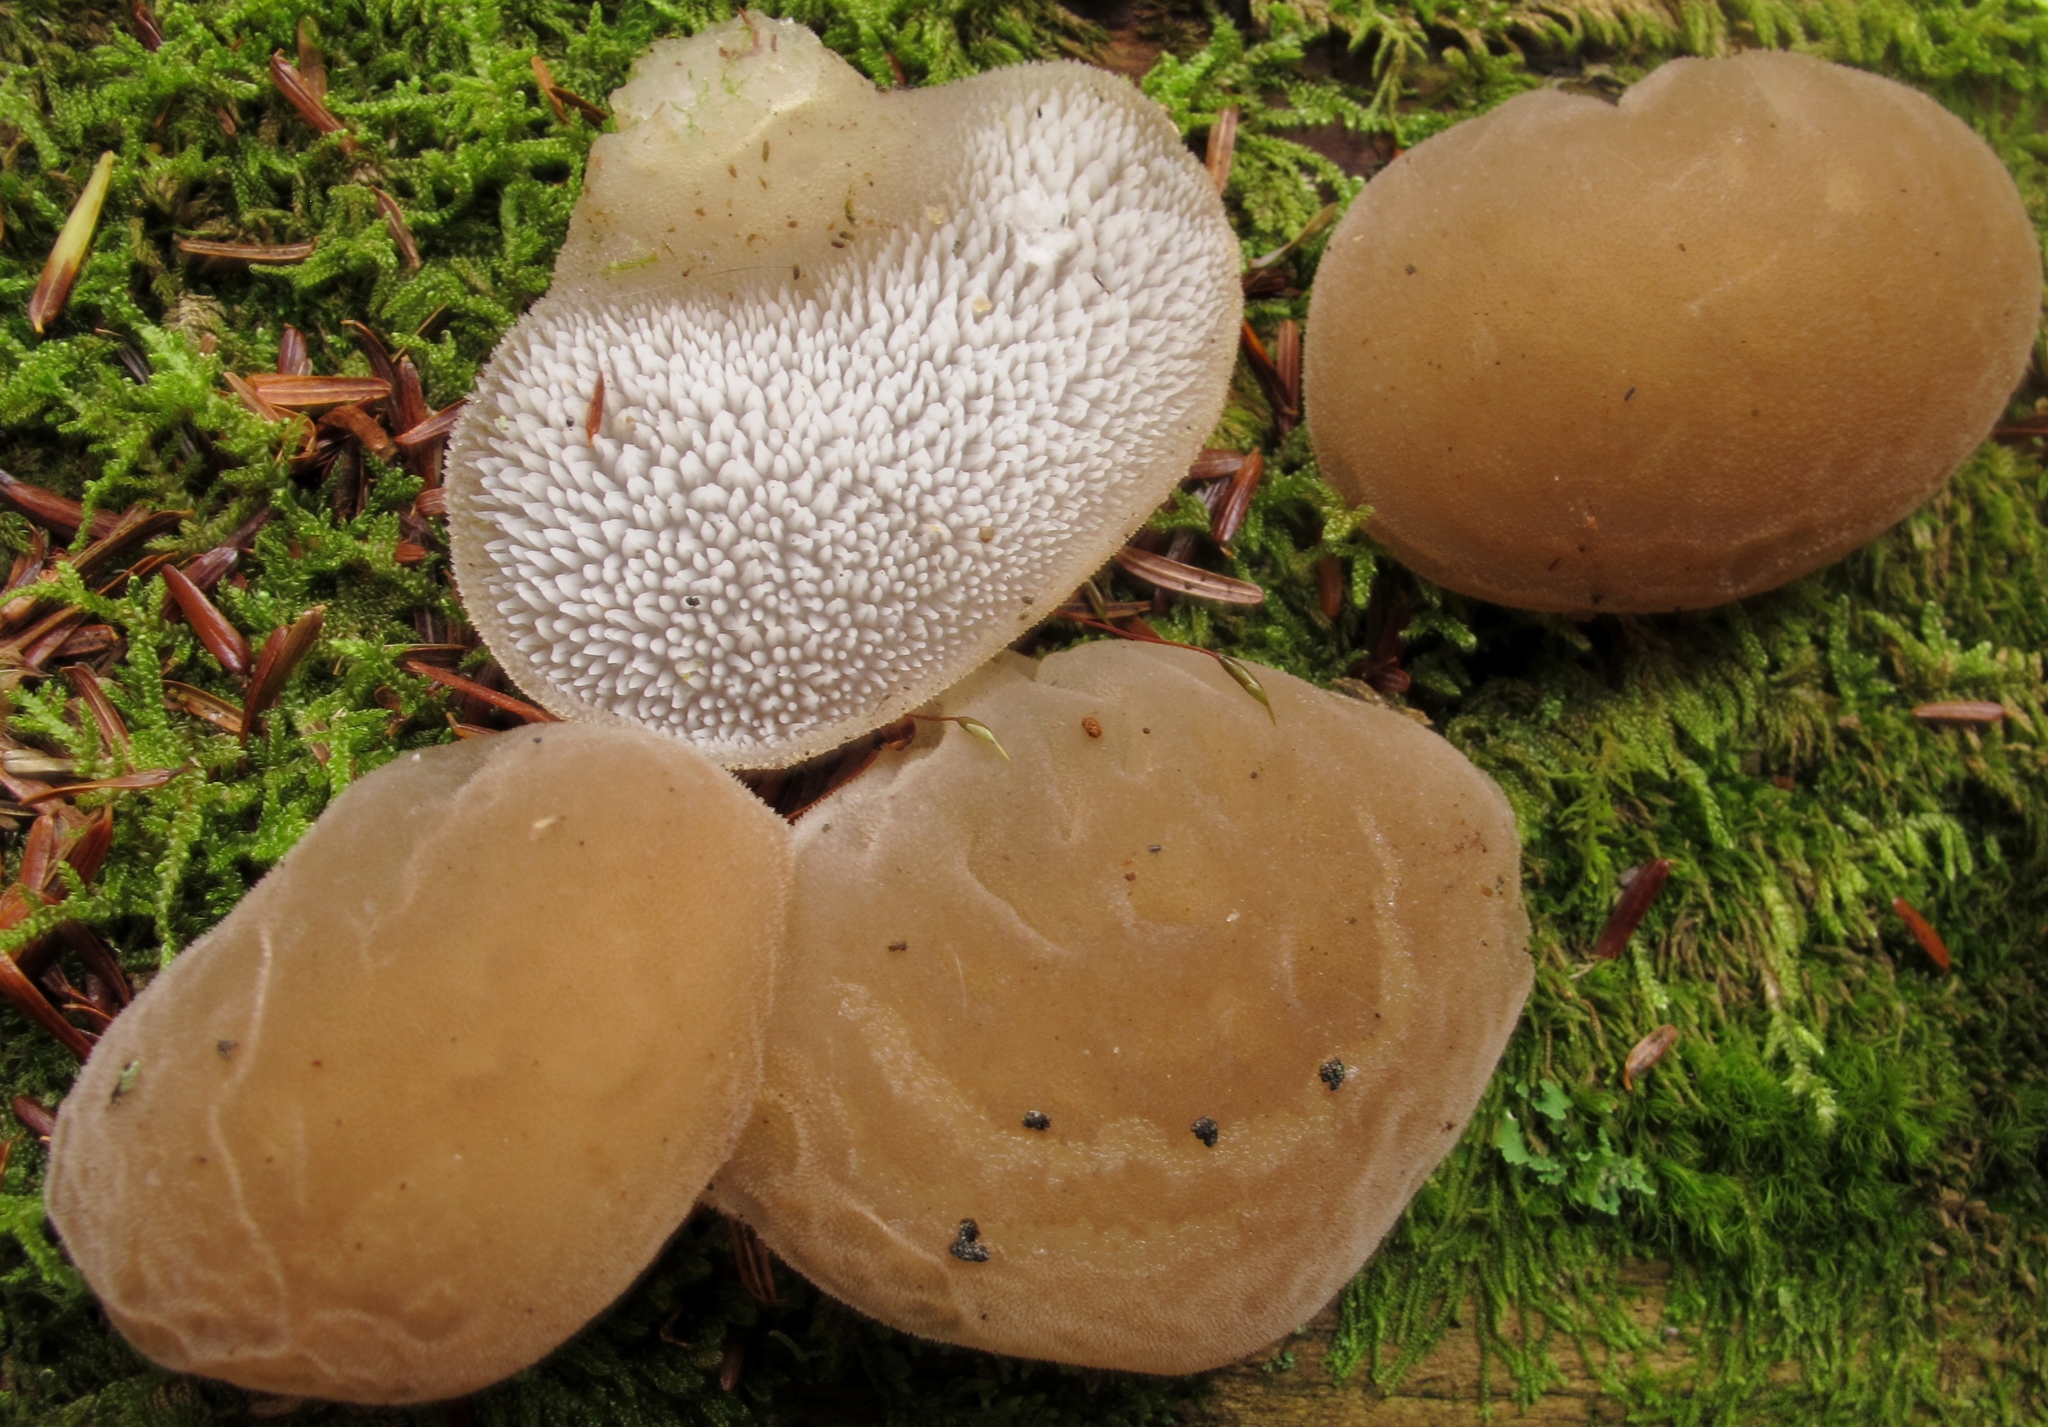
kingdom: Fungi
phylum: Basidiomycota
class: Agaricomycetes
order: Auriculariales
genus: Pseudohydnum
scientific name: Pseudohydnum gelatinosum
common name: Jelly tongue
